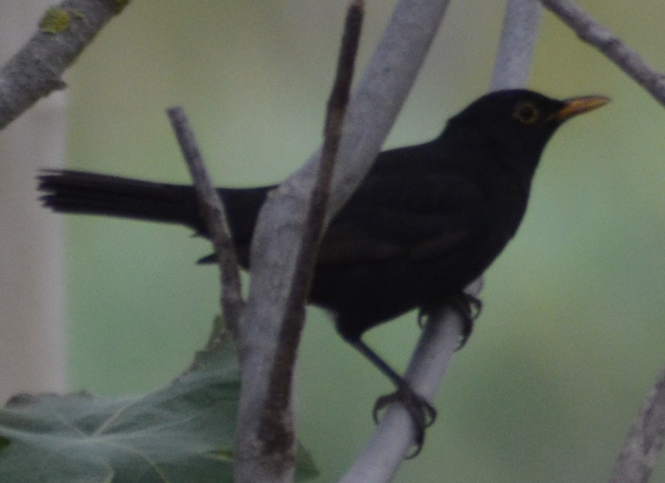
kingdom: Animalia
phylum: Chordata
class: Aves
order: Passeriformes
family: Turdidae
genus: Turdus
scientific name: Turdus merula
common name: Common blackbird
